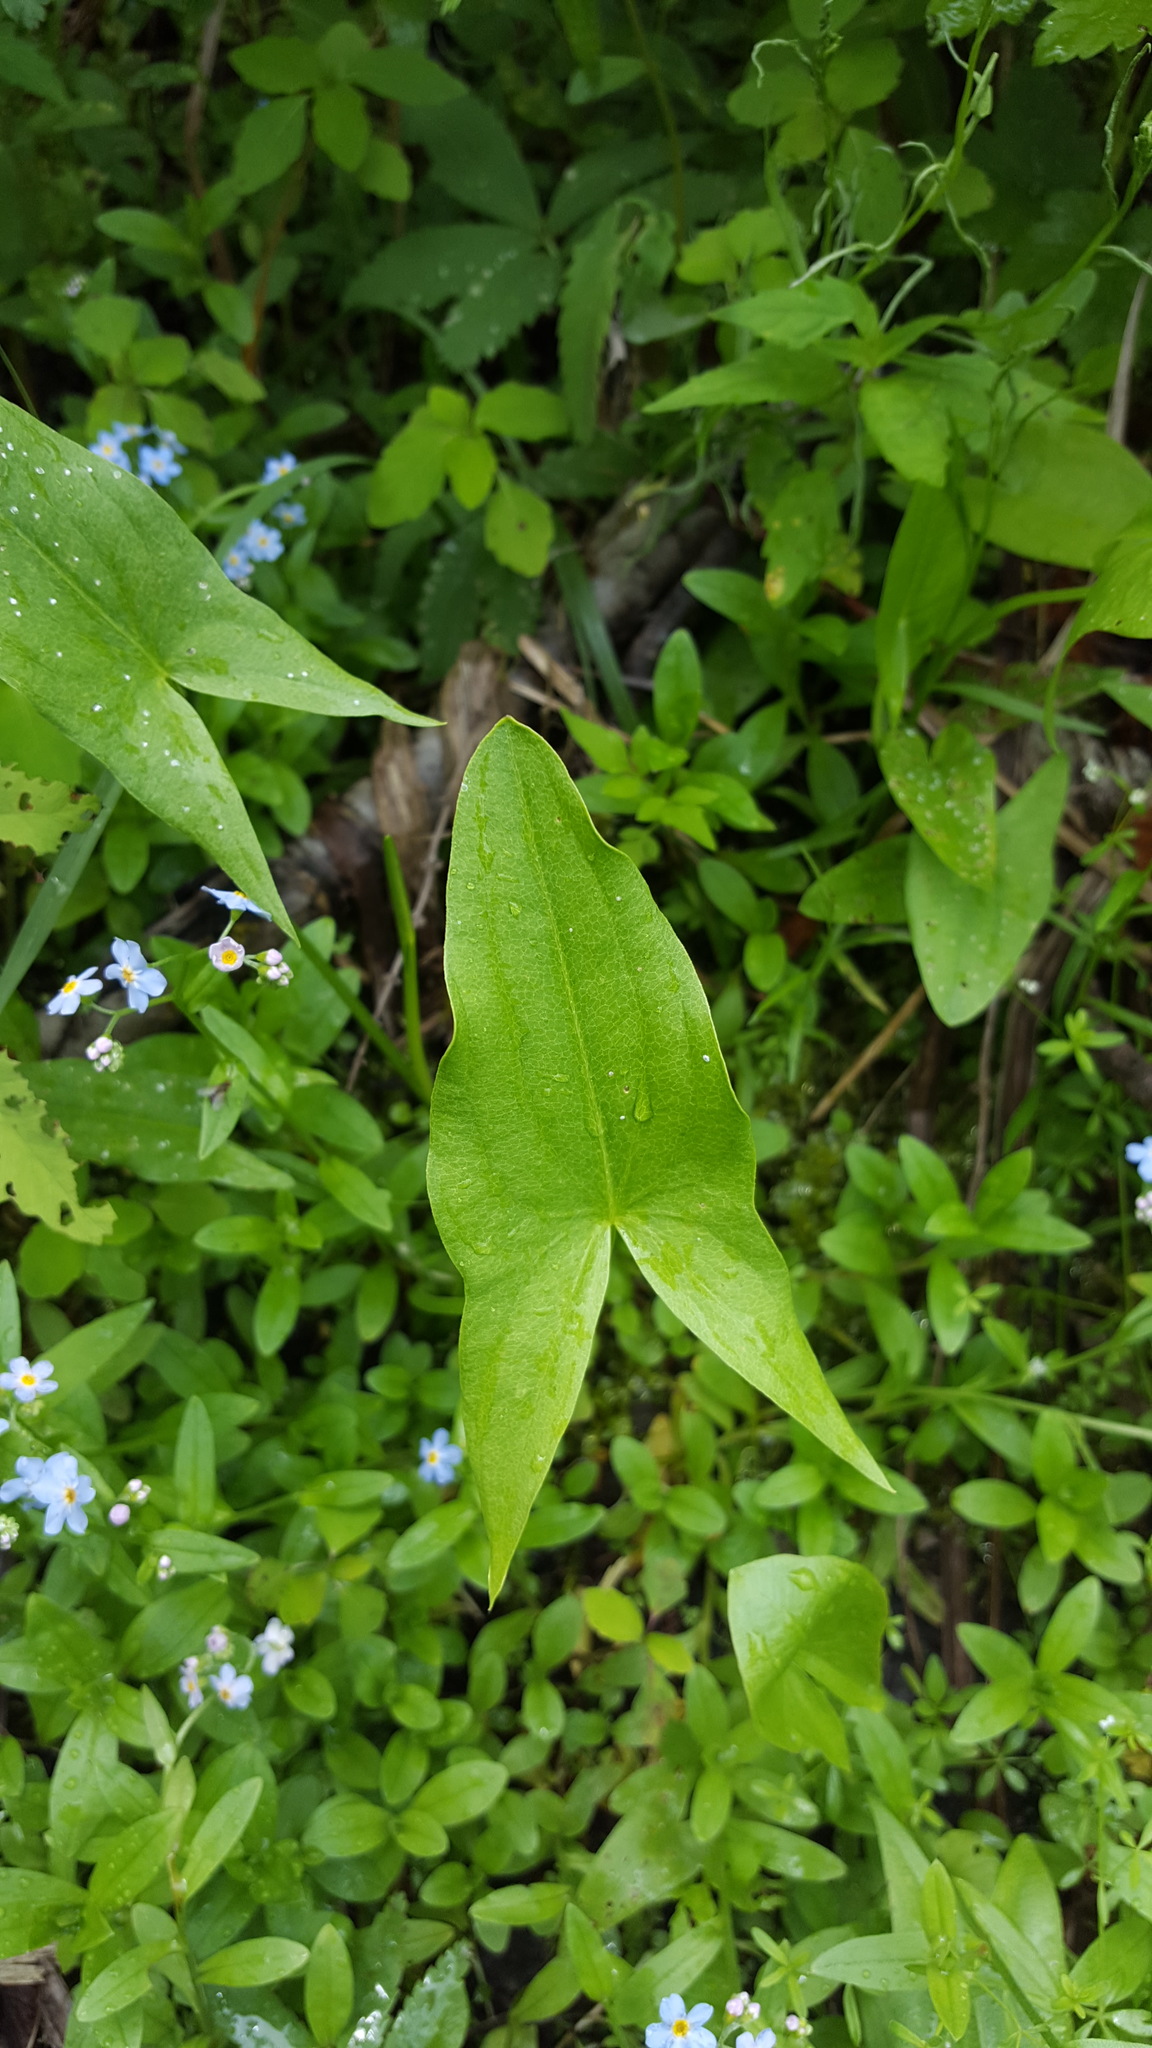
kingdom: Plantae
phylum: Tracheophyta
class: Liliopsida
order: Alismatales
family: Alismataceae
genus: Sagittaria
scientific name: Sagittaria latifolia
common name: Duck-potato
